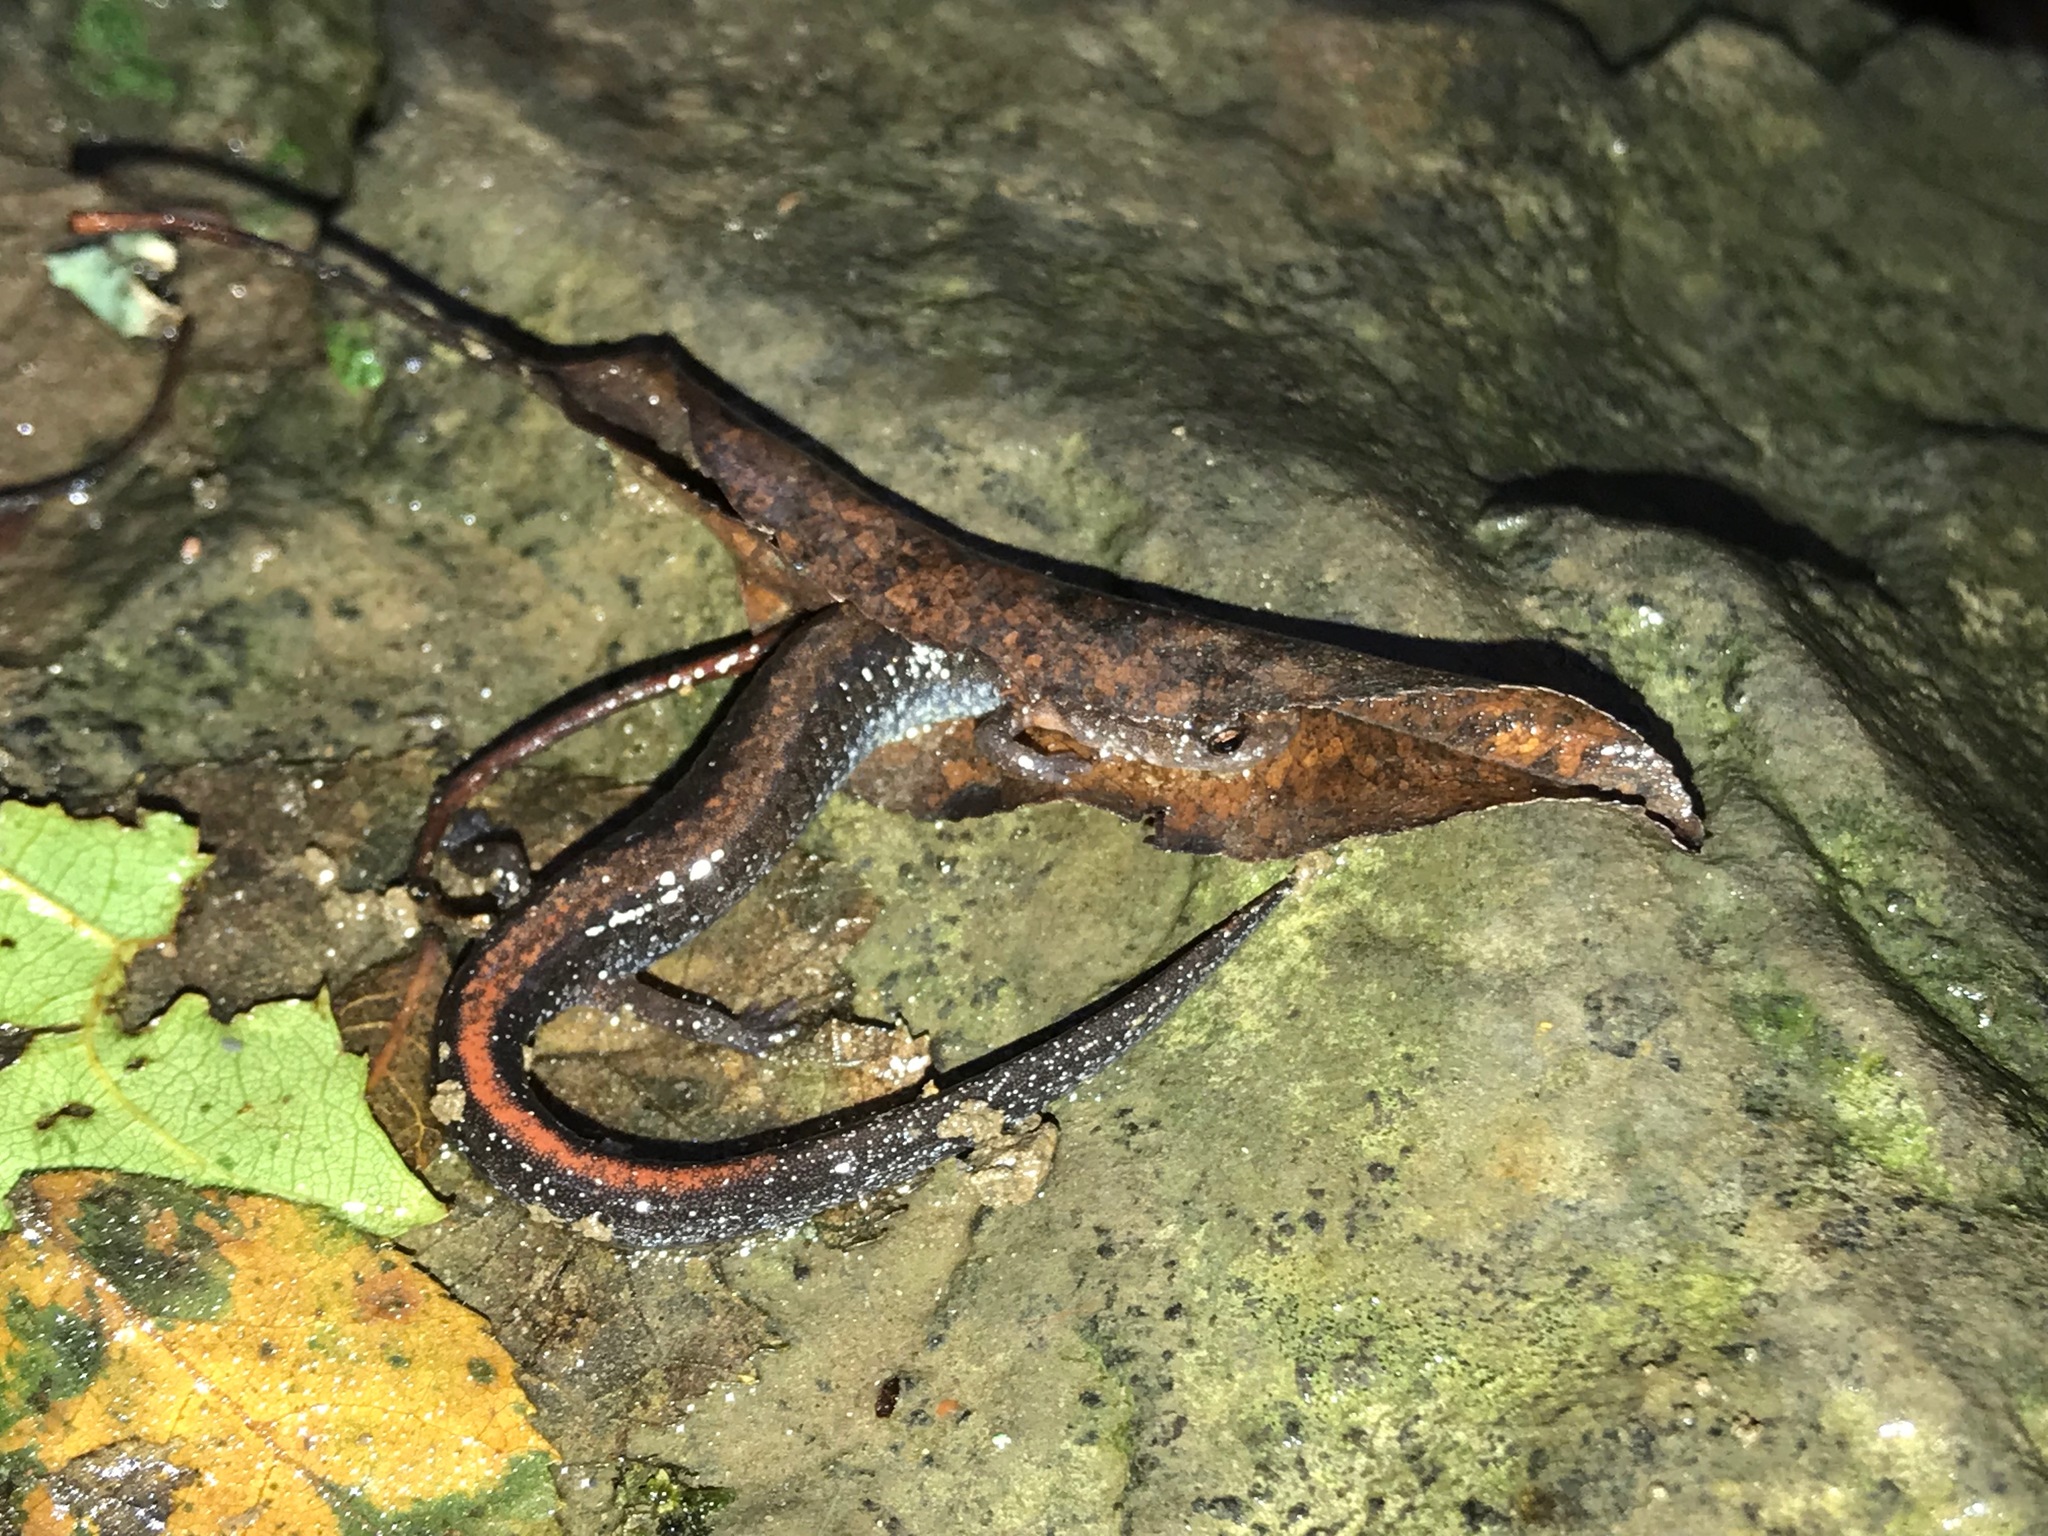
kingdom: Animalia
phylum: Chordata
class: Amphibia
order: Caudata
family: Plethodontidae
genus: Plethodon
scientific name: Plethodon serratus
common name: Southern red-backed salamander
